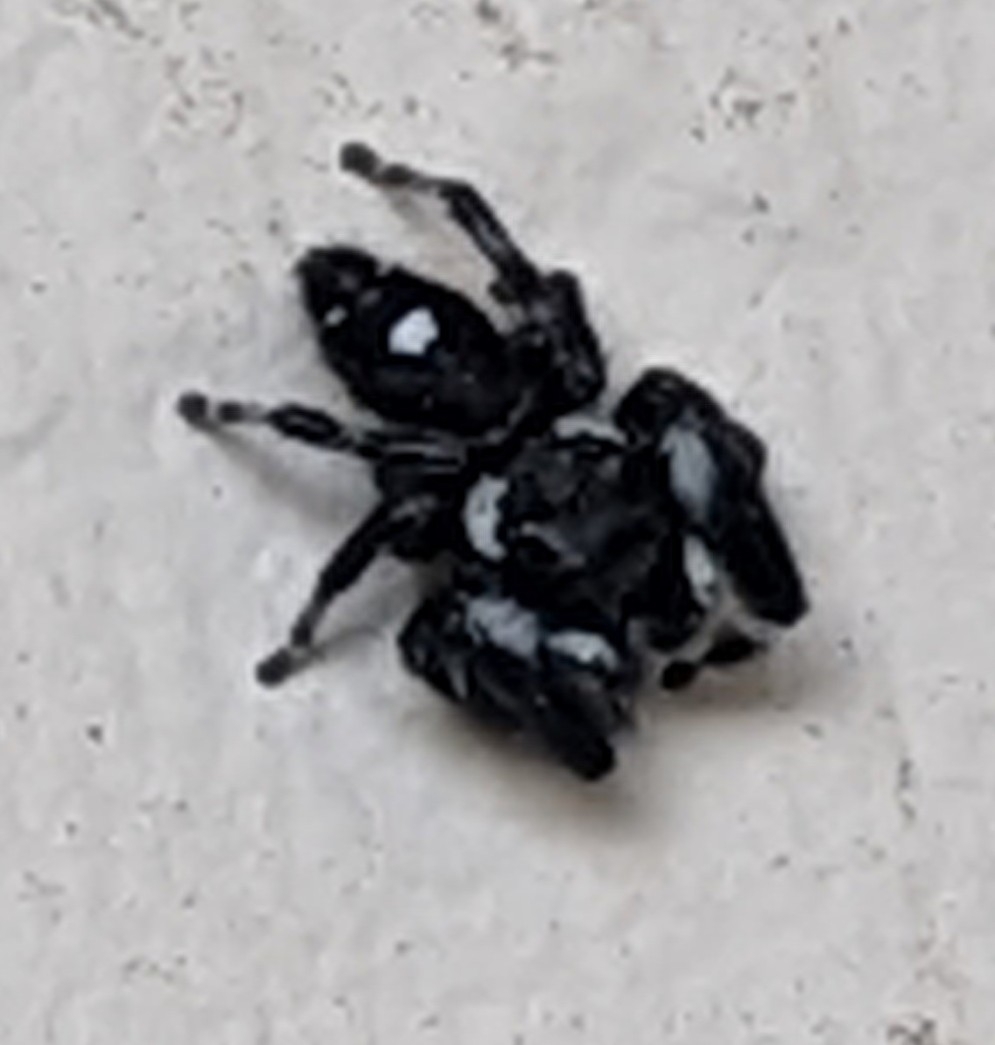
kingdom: Animalia
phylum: Arthropoda
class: Arachnida
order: Araneae
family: Salticidae
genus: Phidippus
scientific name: Phidippus audax
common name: Bold jumper
